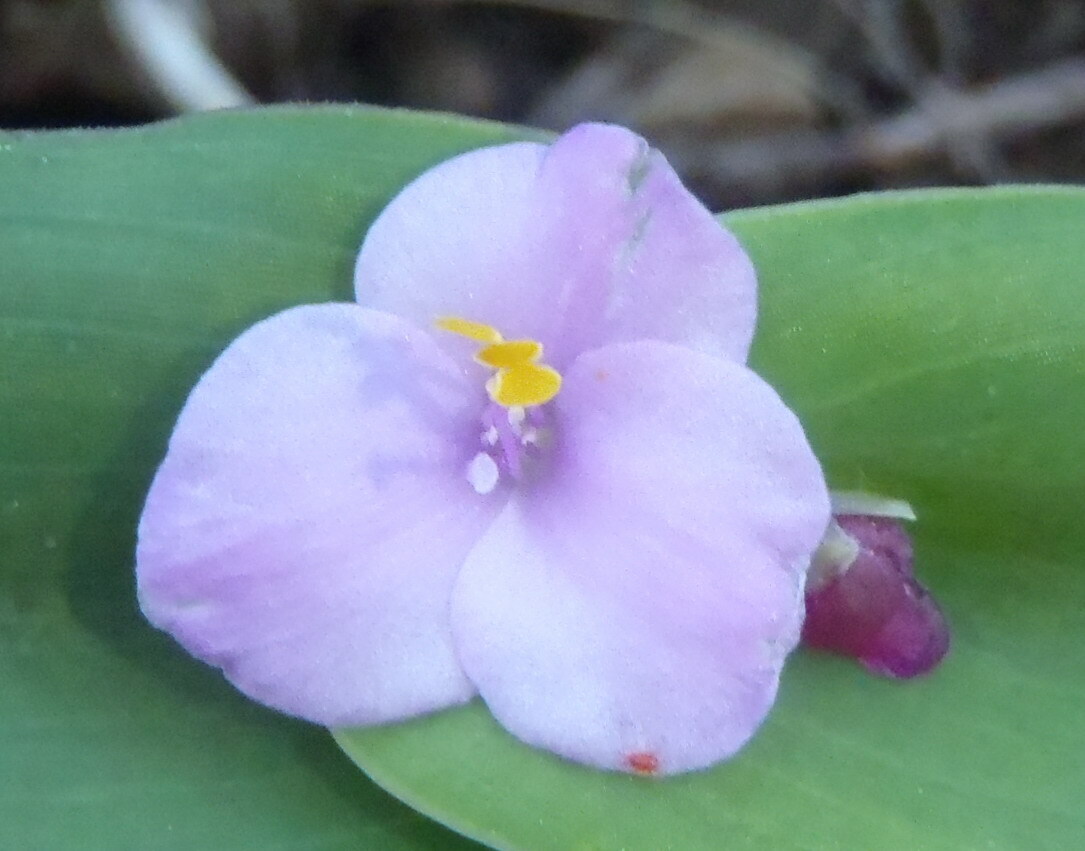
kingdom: Plantae
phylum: Tracheophyta
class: Liliopsida
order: Commelinales
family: Commelinaceae
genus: Tradescantia
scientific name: Tradescantia brevifolia
